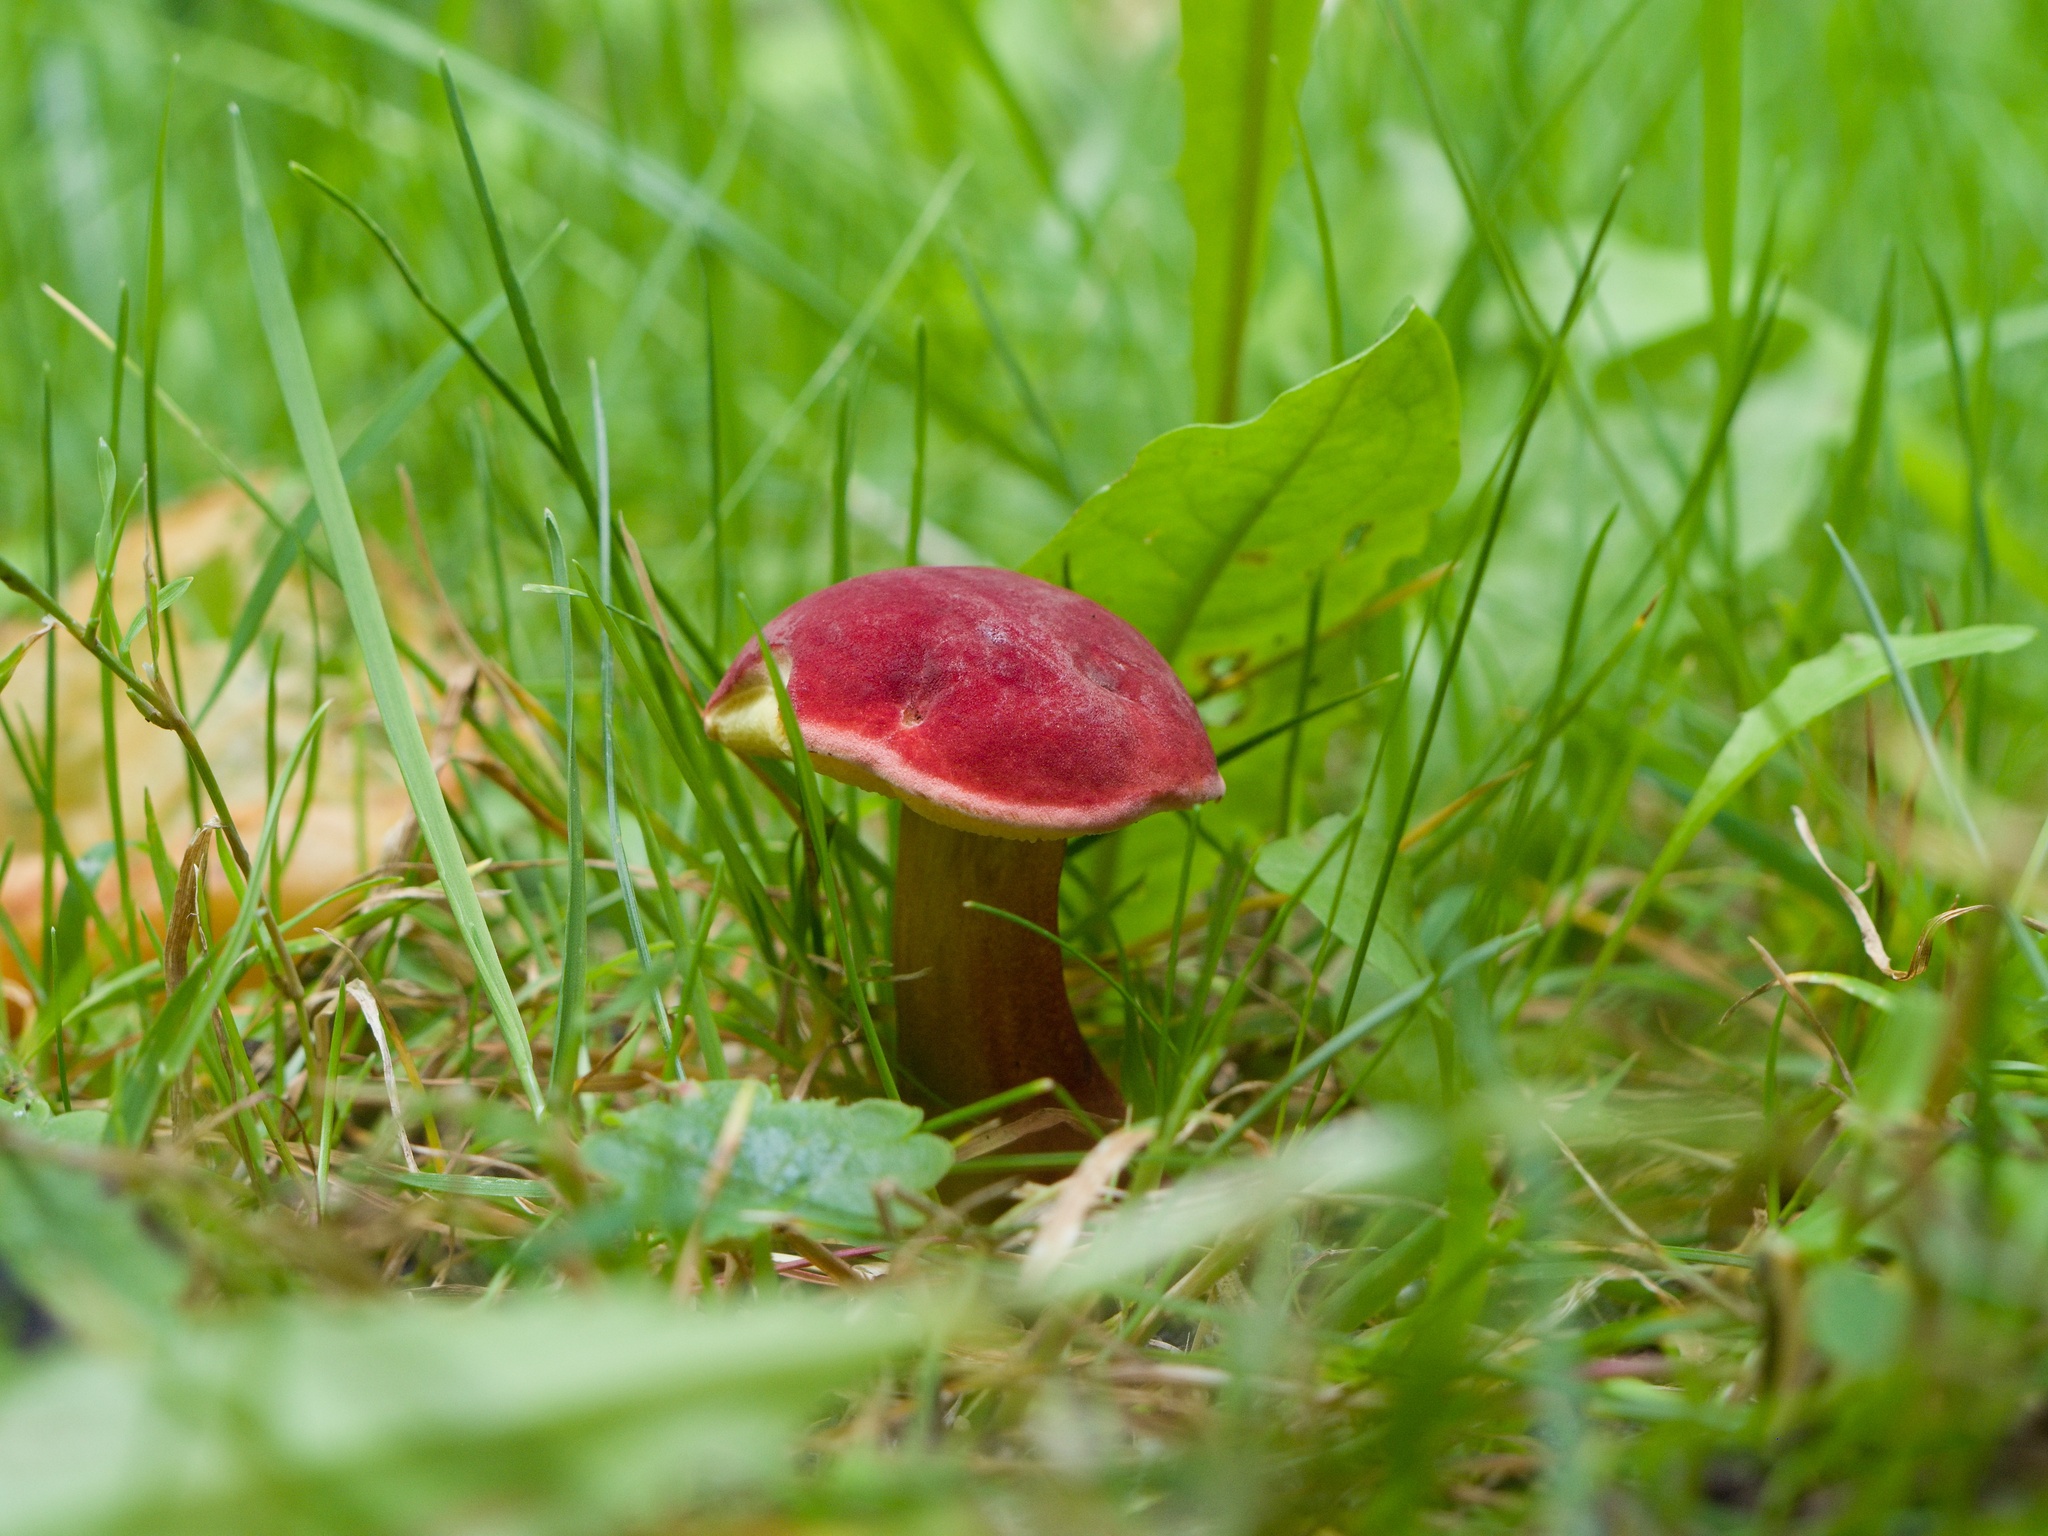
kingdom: Fungi
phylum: Basidiomycota
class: Agaricomycetes
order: Boletales
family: Boletaceae
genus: Hortiboletus
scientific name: Hortiboletus rubellus
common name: Ruby bolete
